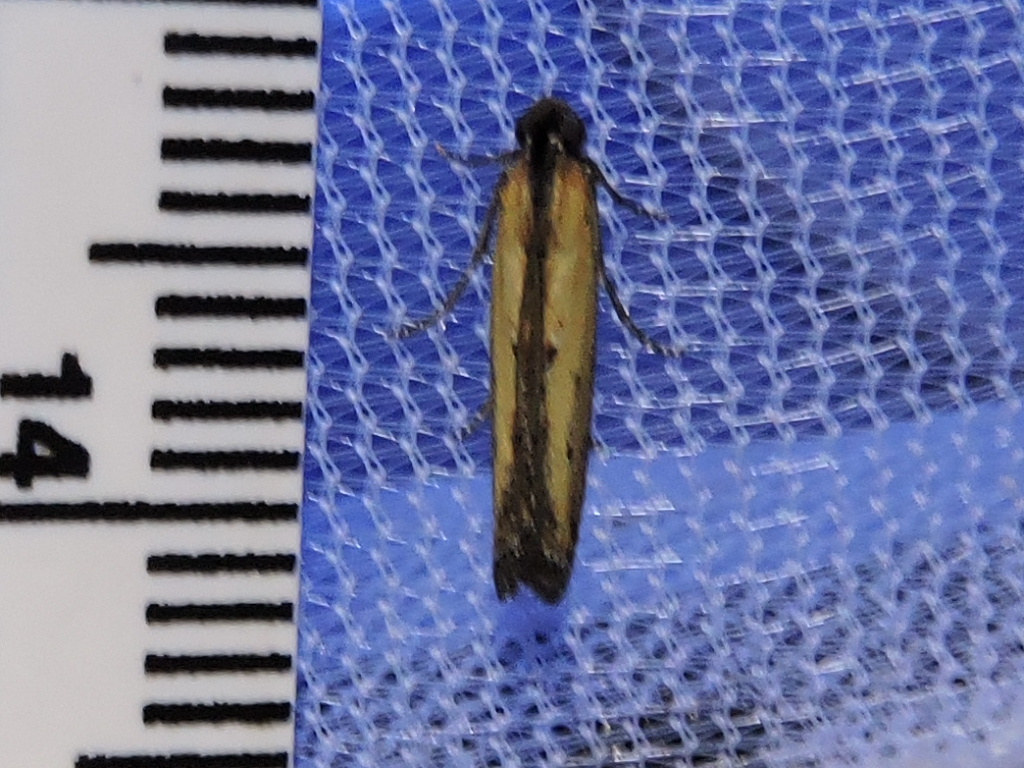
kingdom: Animalia
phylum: Arthropoda
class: Insecta
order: Lepidoptera
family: Pyralidae
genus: Elasmopalpus
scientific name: Elasmopalpus lignosella
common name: Lesser cornstalk borer
